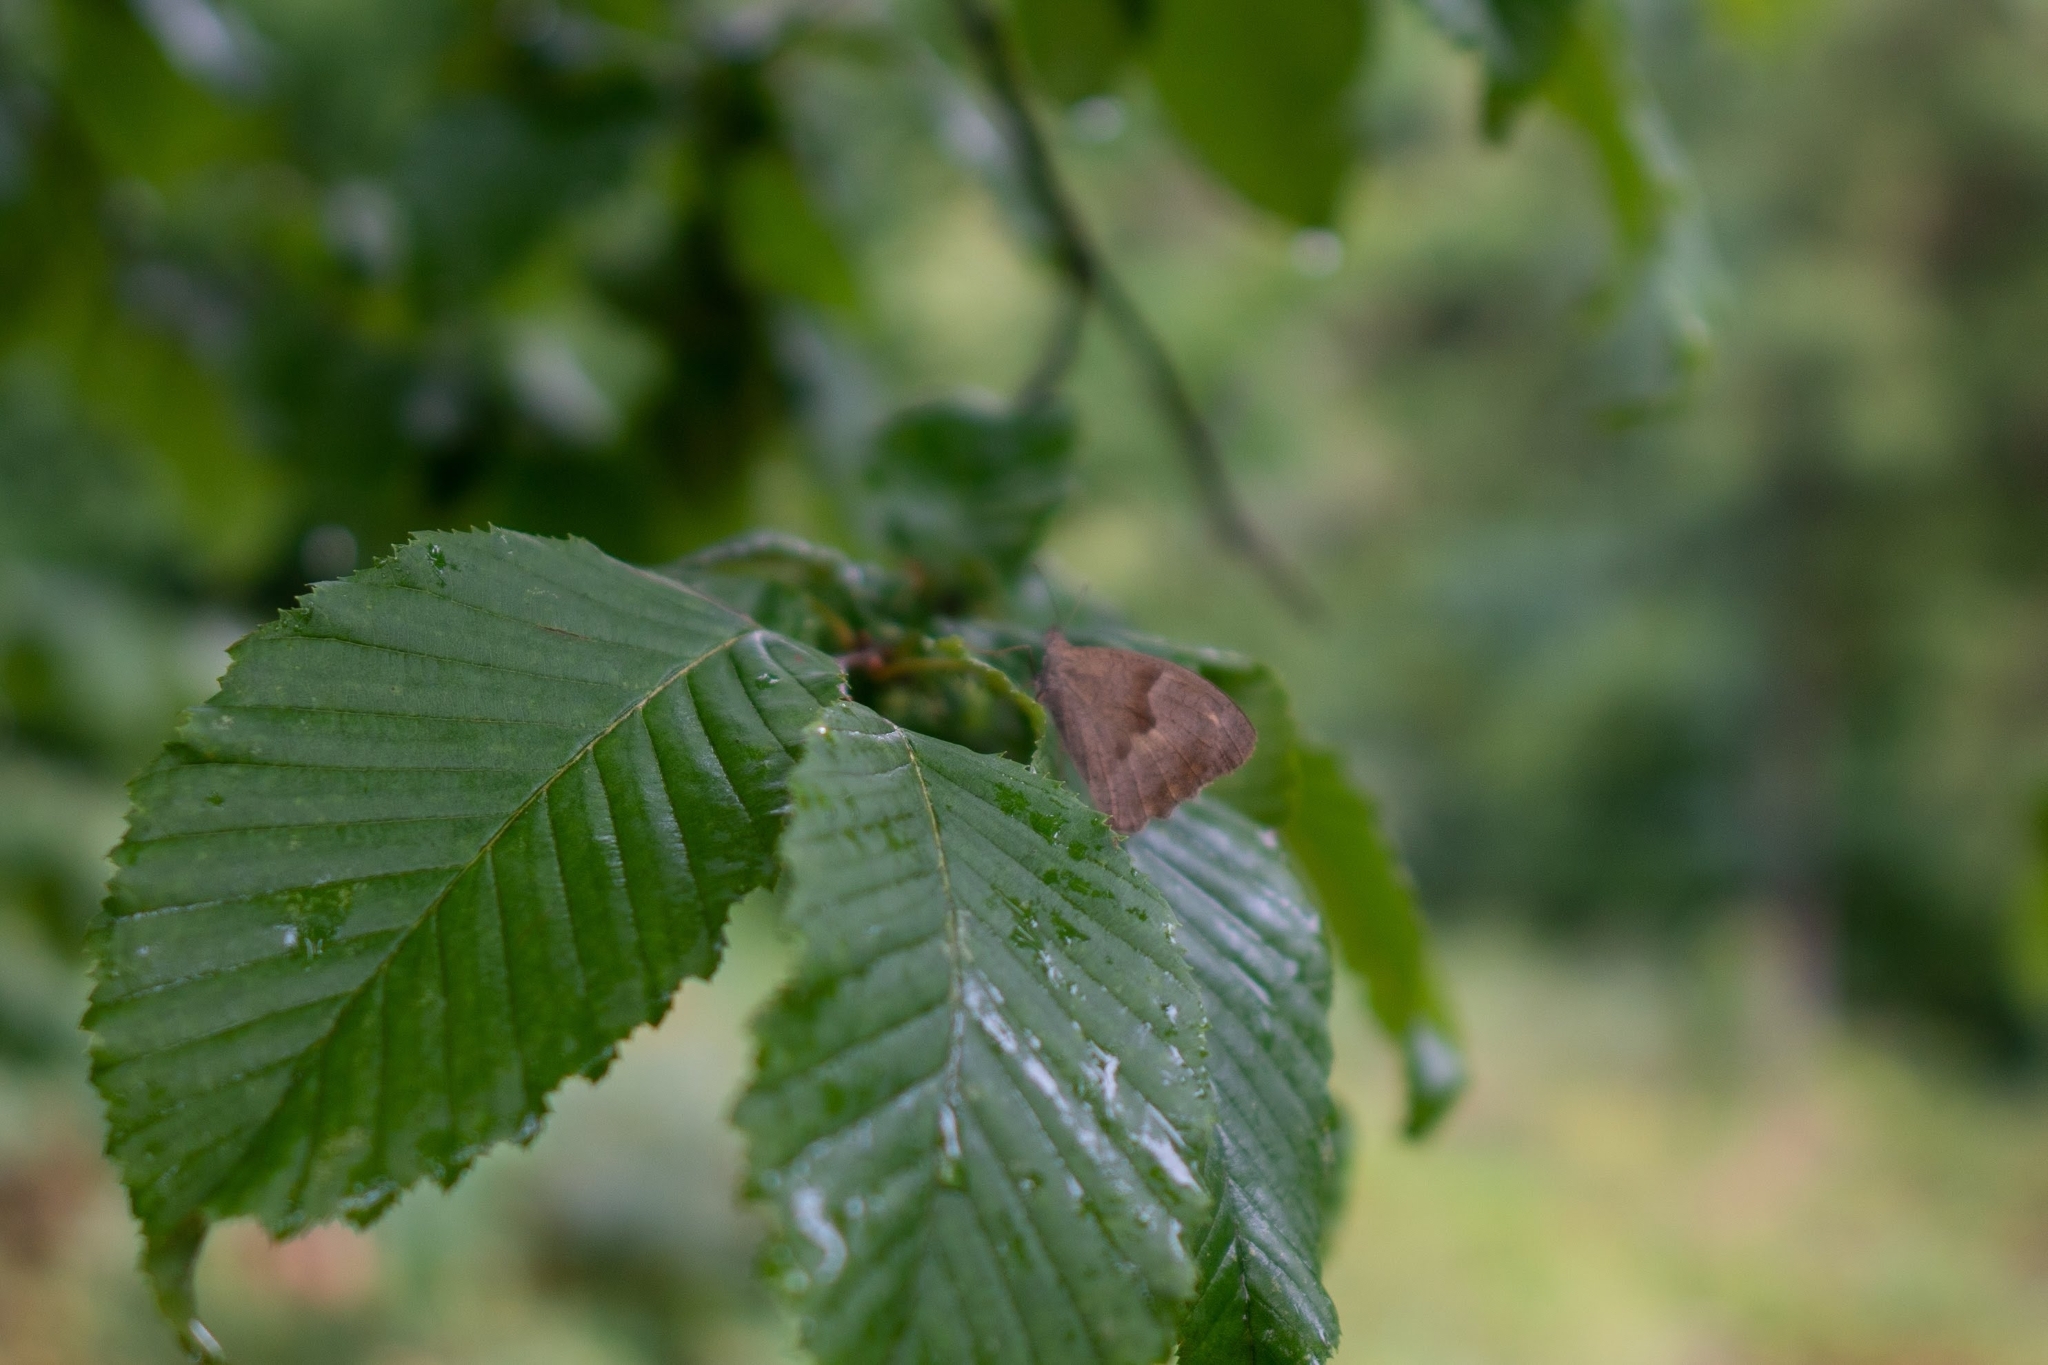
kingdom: Animalia
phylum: Arthropoda
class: Insecta
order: Lepidoptera
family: Nymphalidae
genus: Maniola
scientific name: Maniola jurtina
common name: Meadow brown
